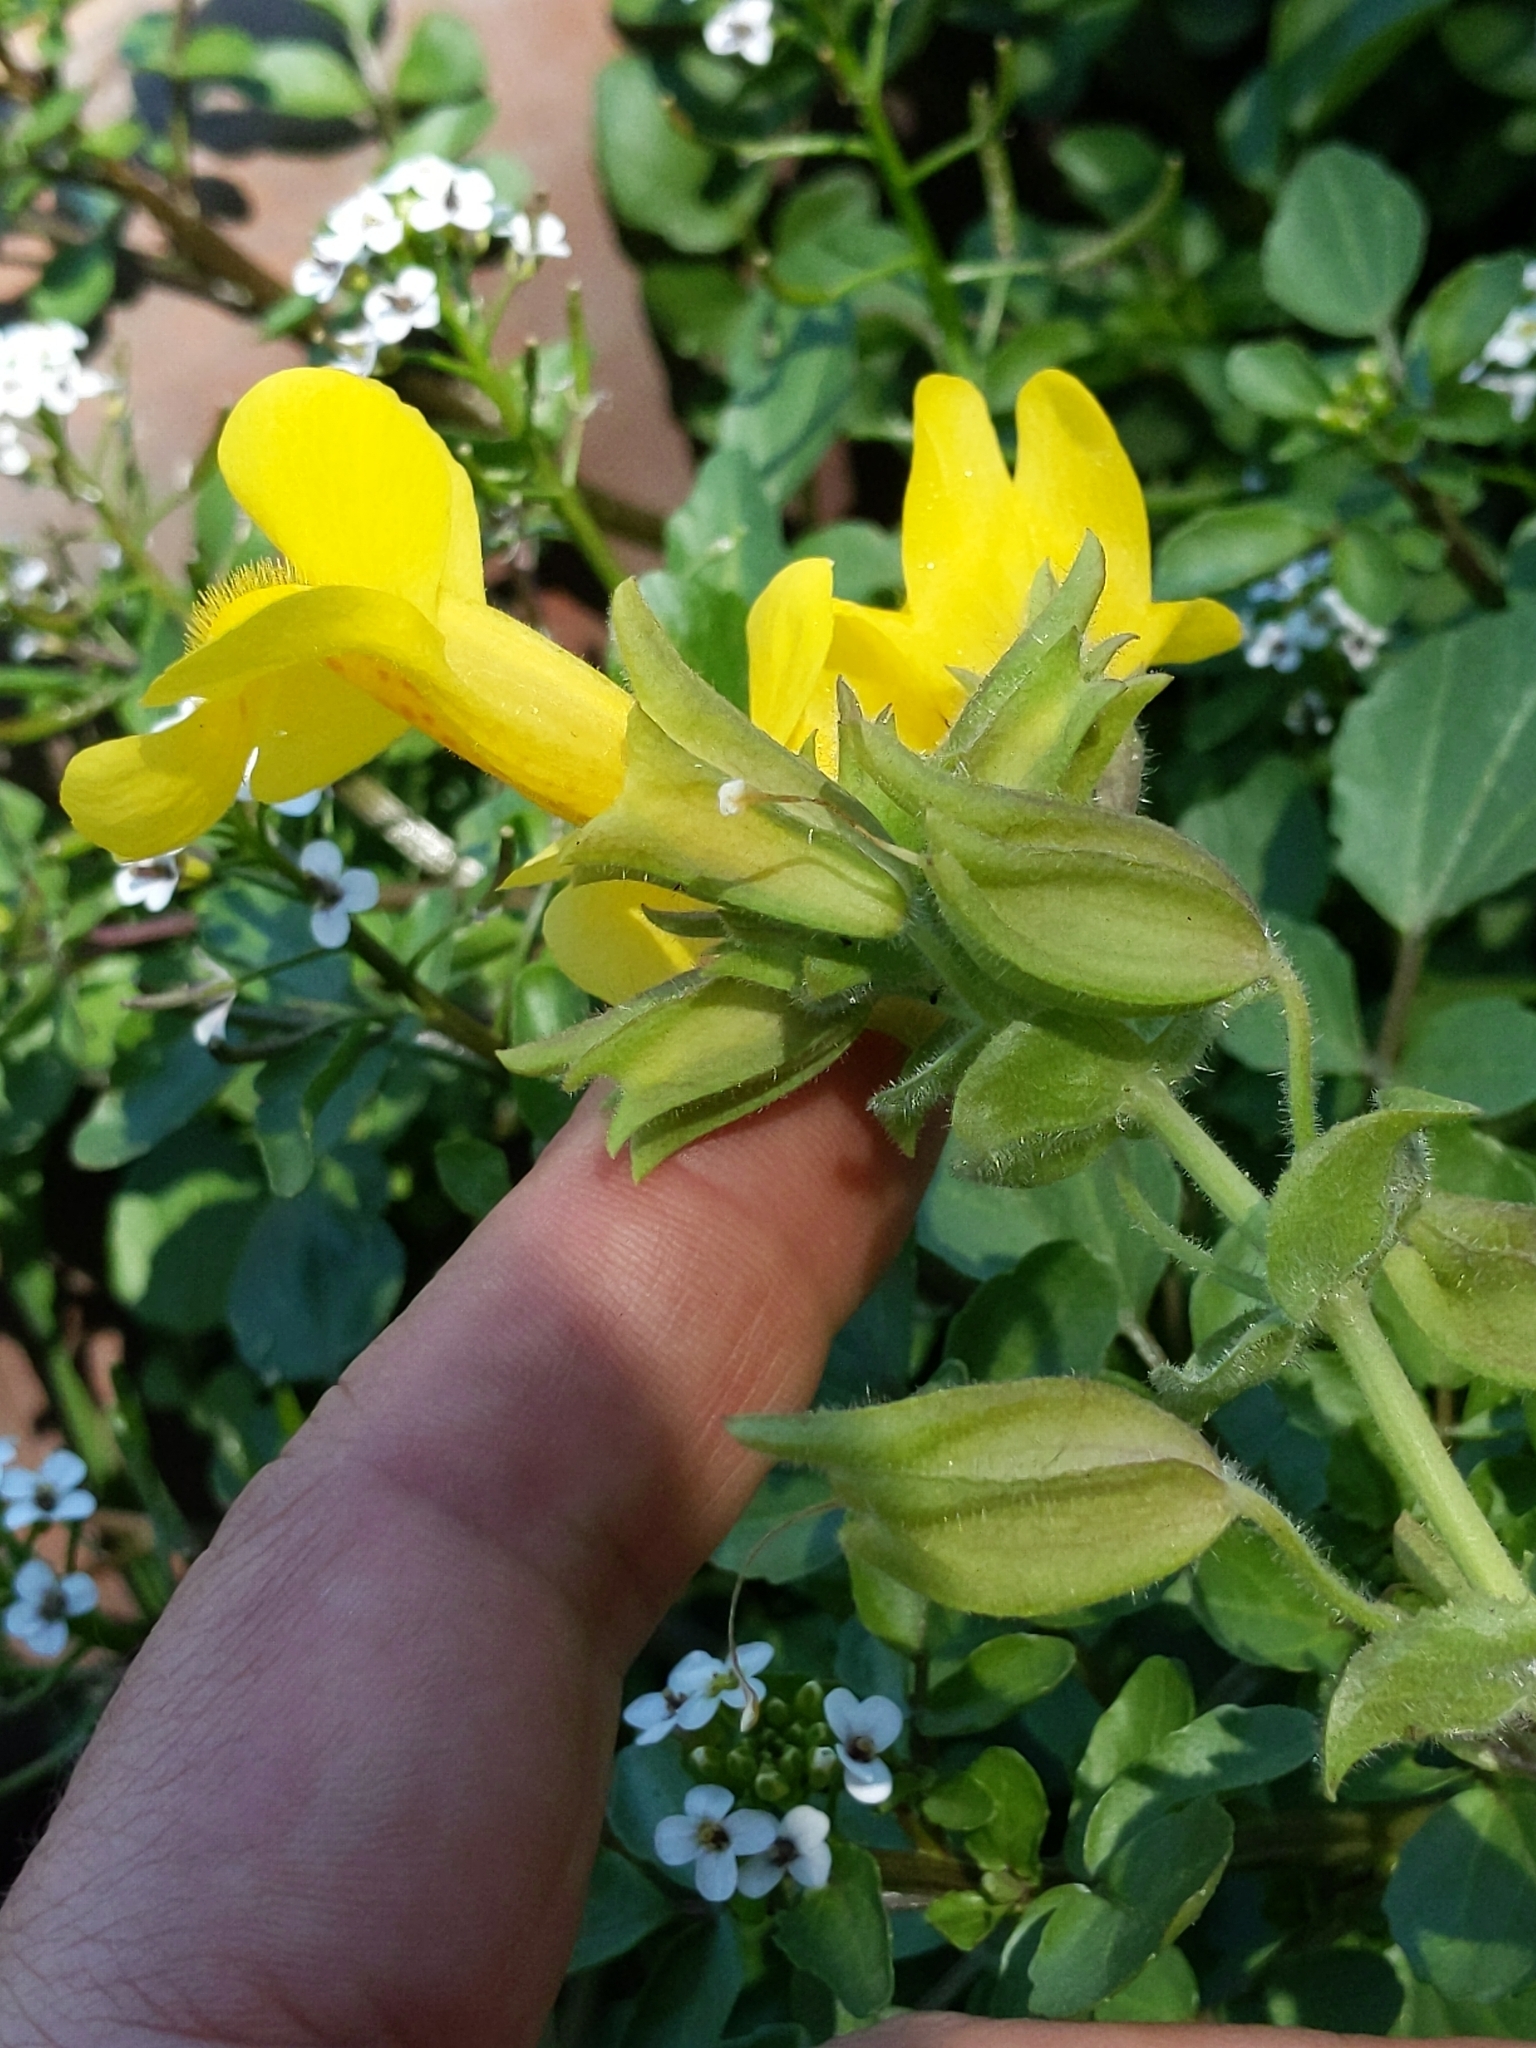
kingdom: Plantae
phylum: Tracheophyta
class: Magnoliopsida
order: Lamiales
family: Phrymaceae
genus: Erythranthe
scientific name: Erythranthe guttata
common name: Monkeyflower
